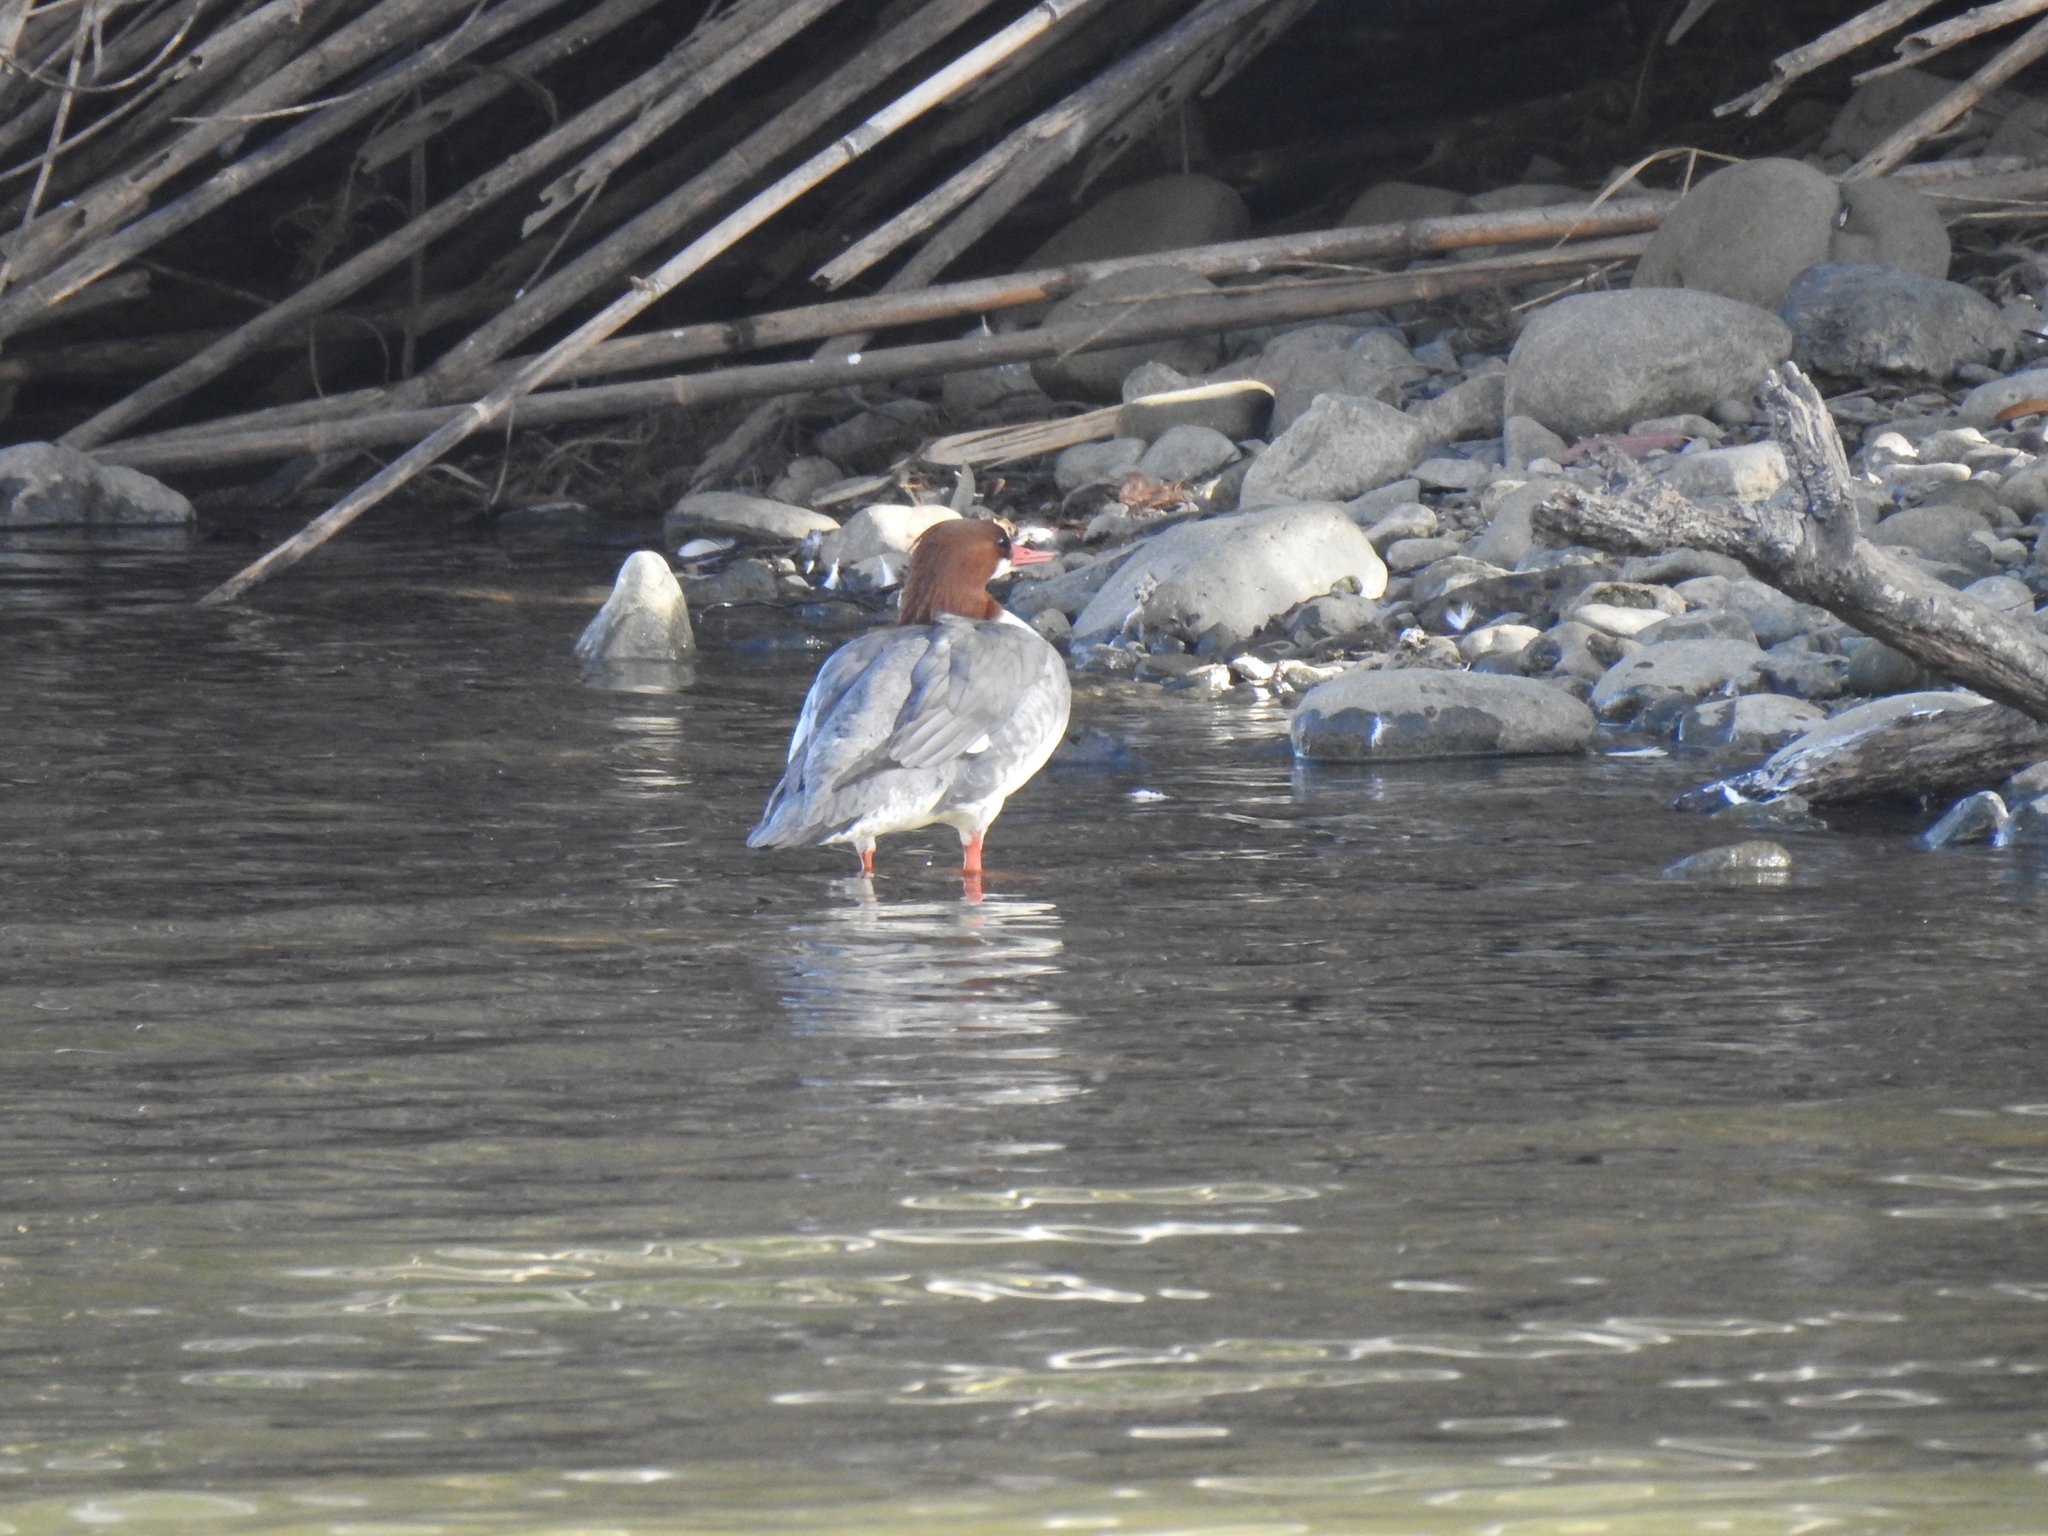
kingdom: Animalia
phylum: Chordata
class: Aves
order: Anseriformes
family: Anatidae
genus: Mergus
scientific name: Mergus merganser
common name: Common merganser
